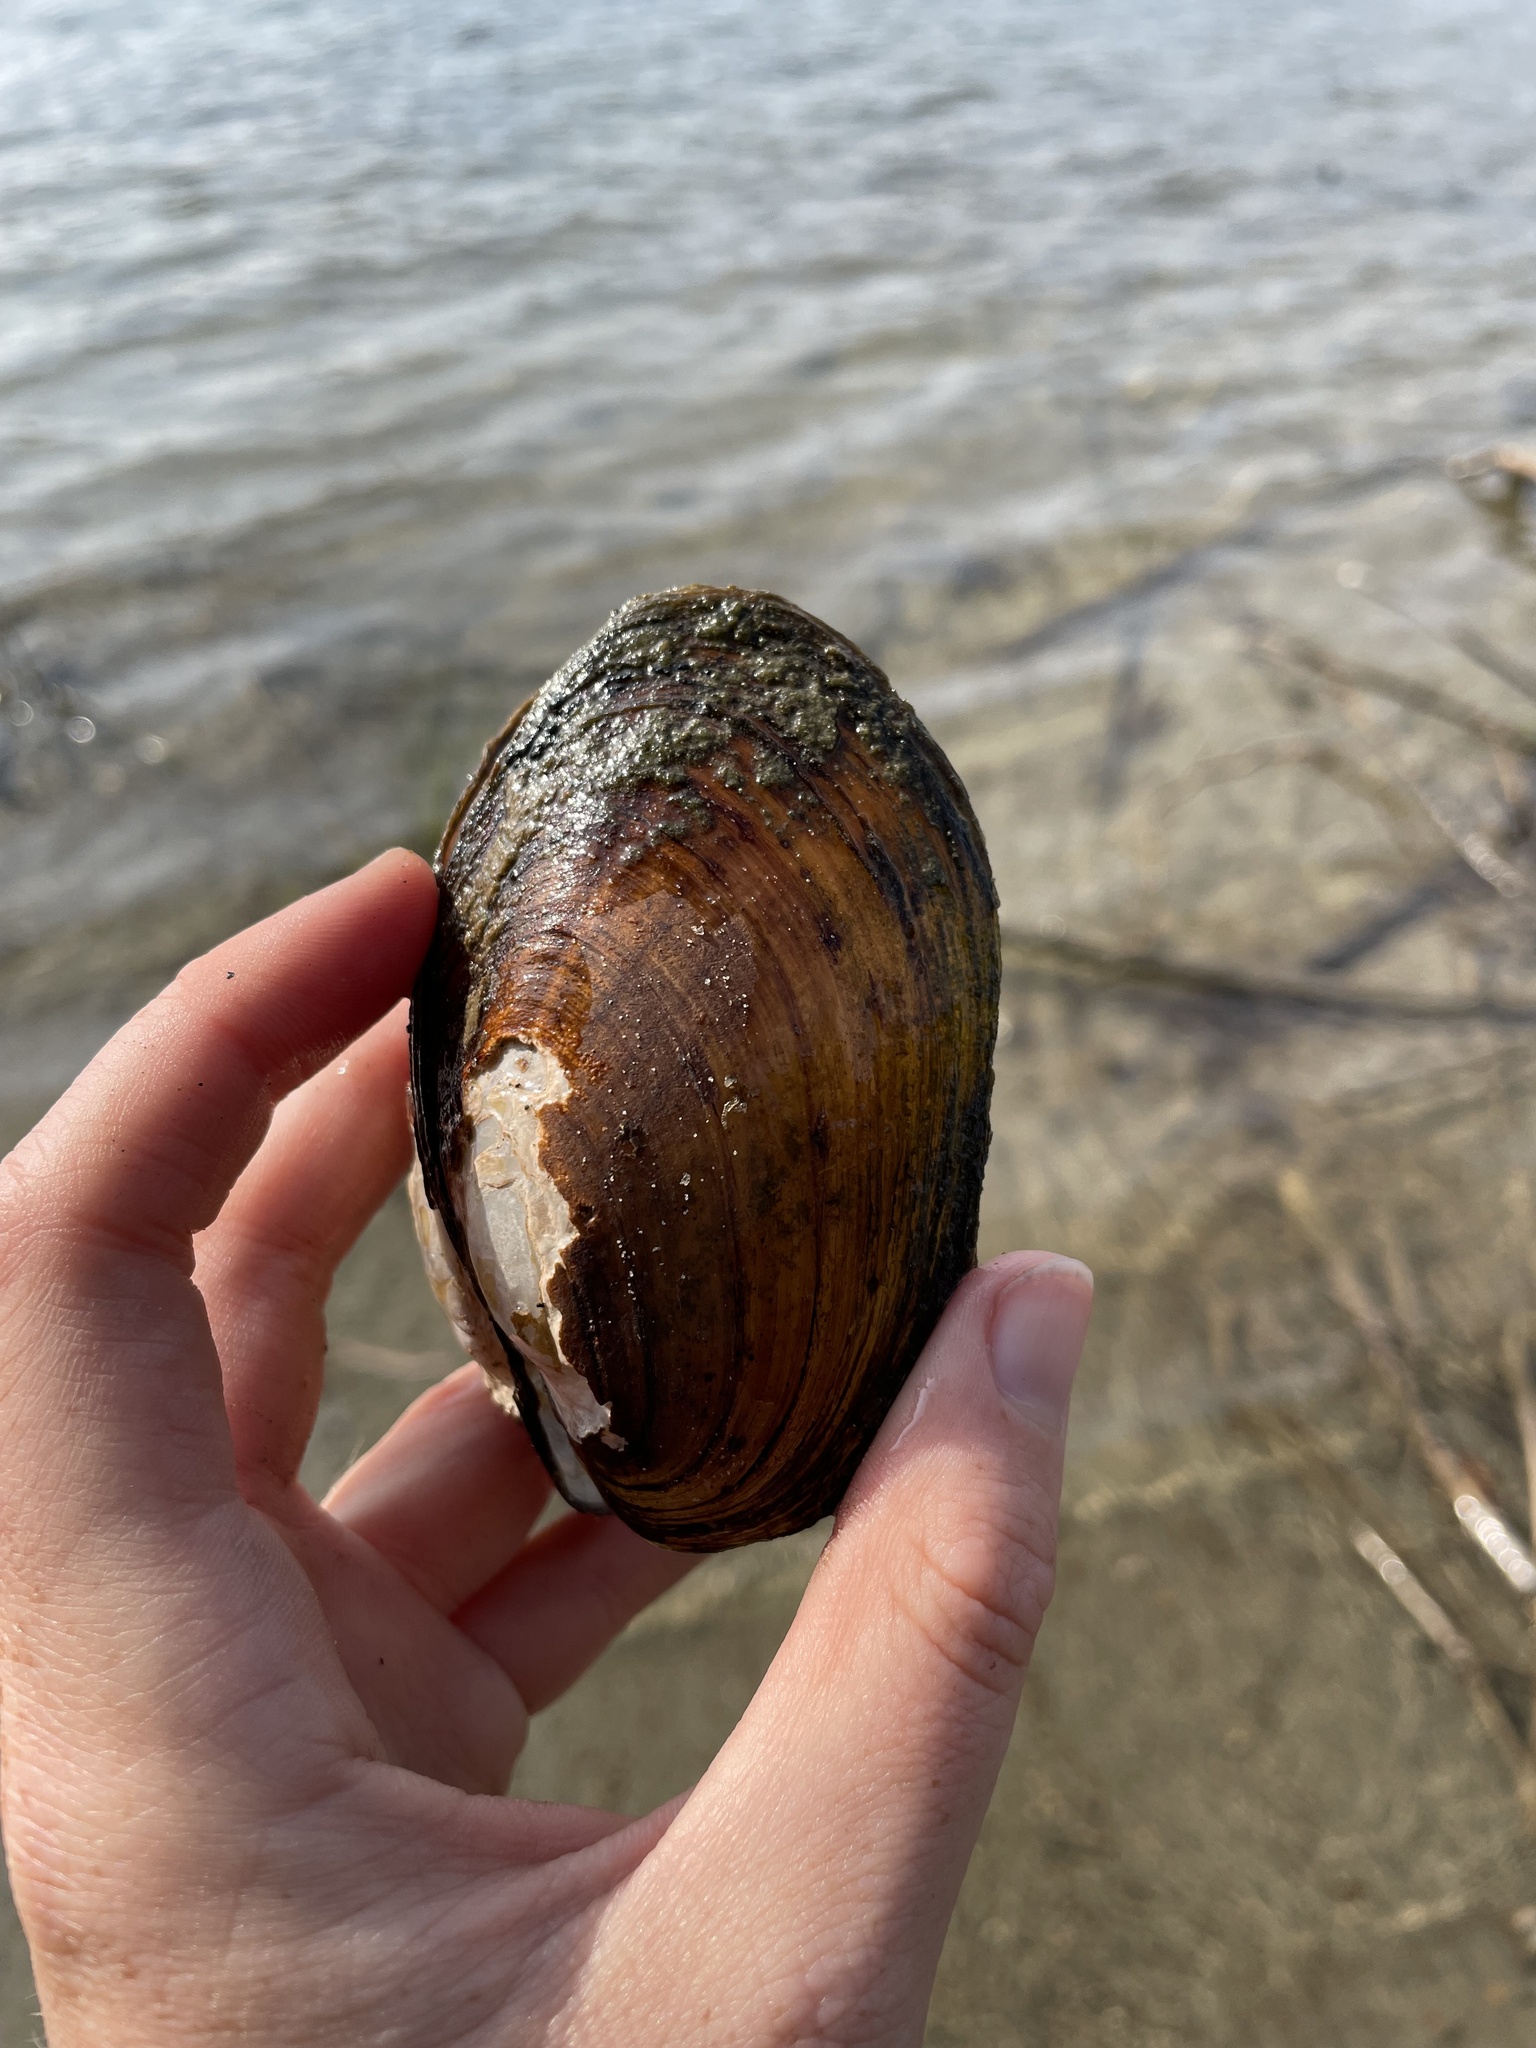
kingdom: Animalia
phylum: Mollusca
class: Bivalvia
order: Unionida
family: Unionidae
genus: Lampsilis
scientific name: Lampsilis siliquoidea
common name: Fatmucket
